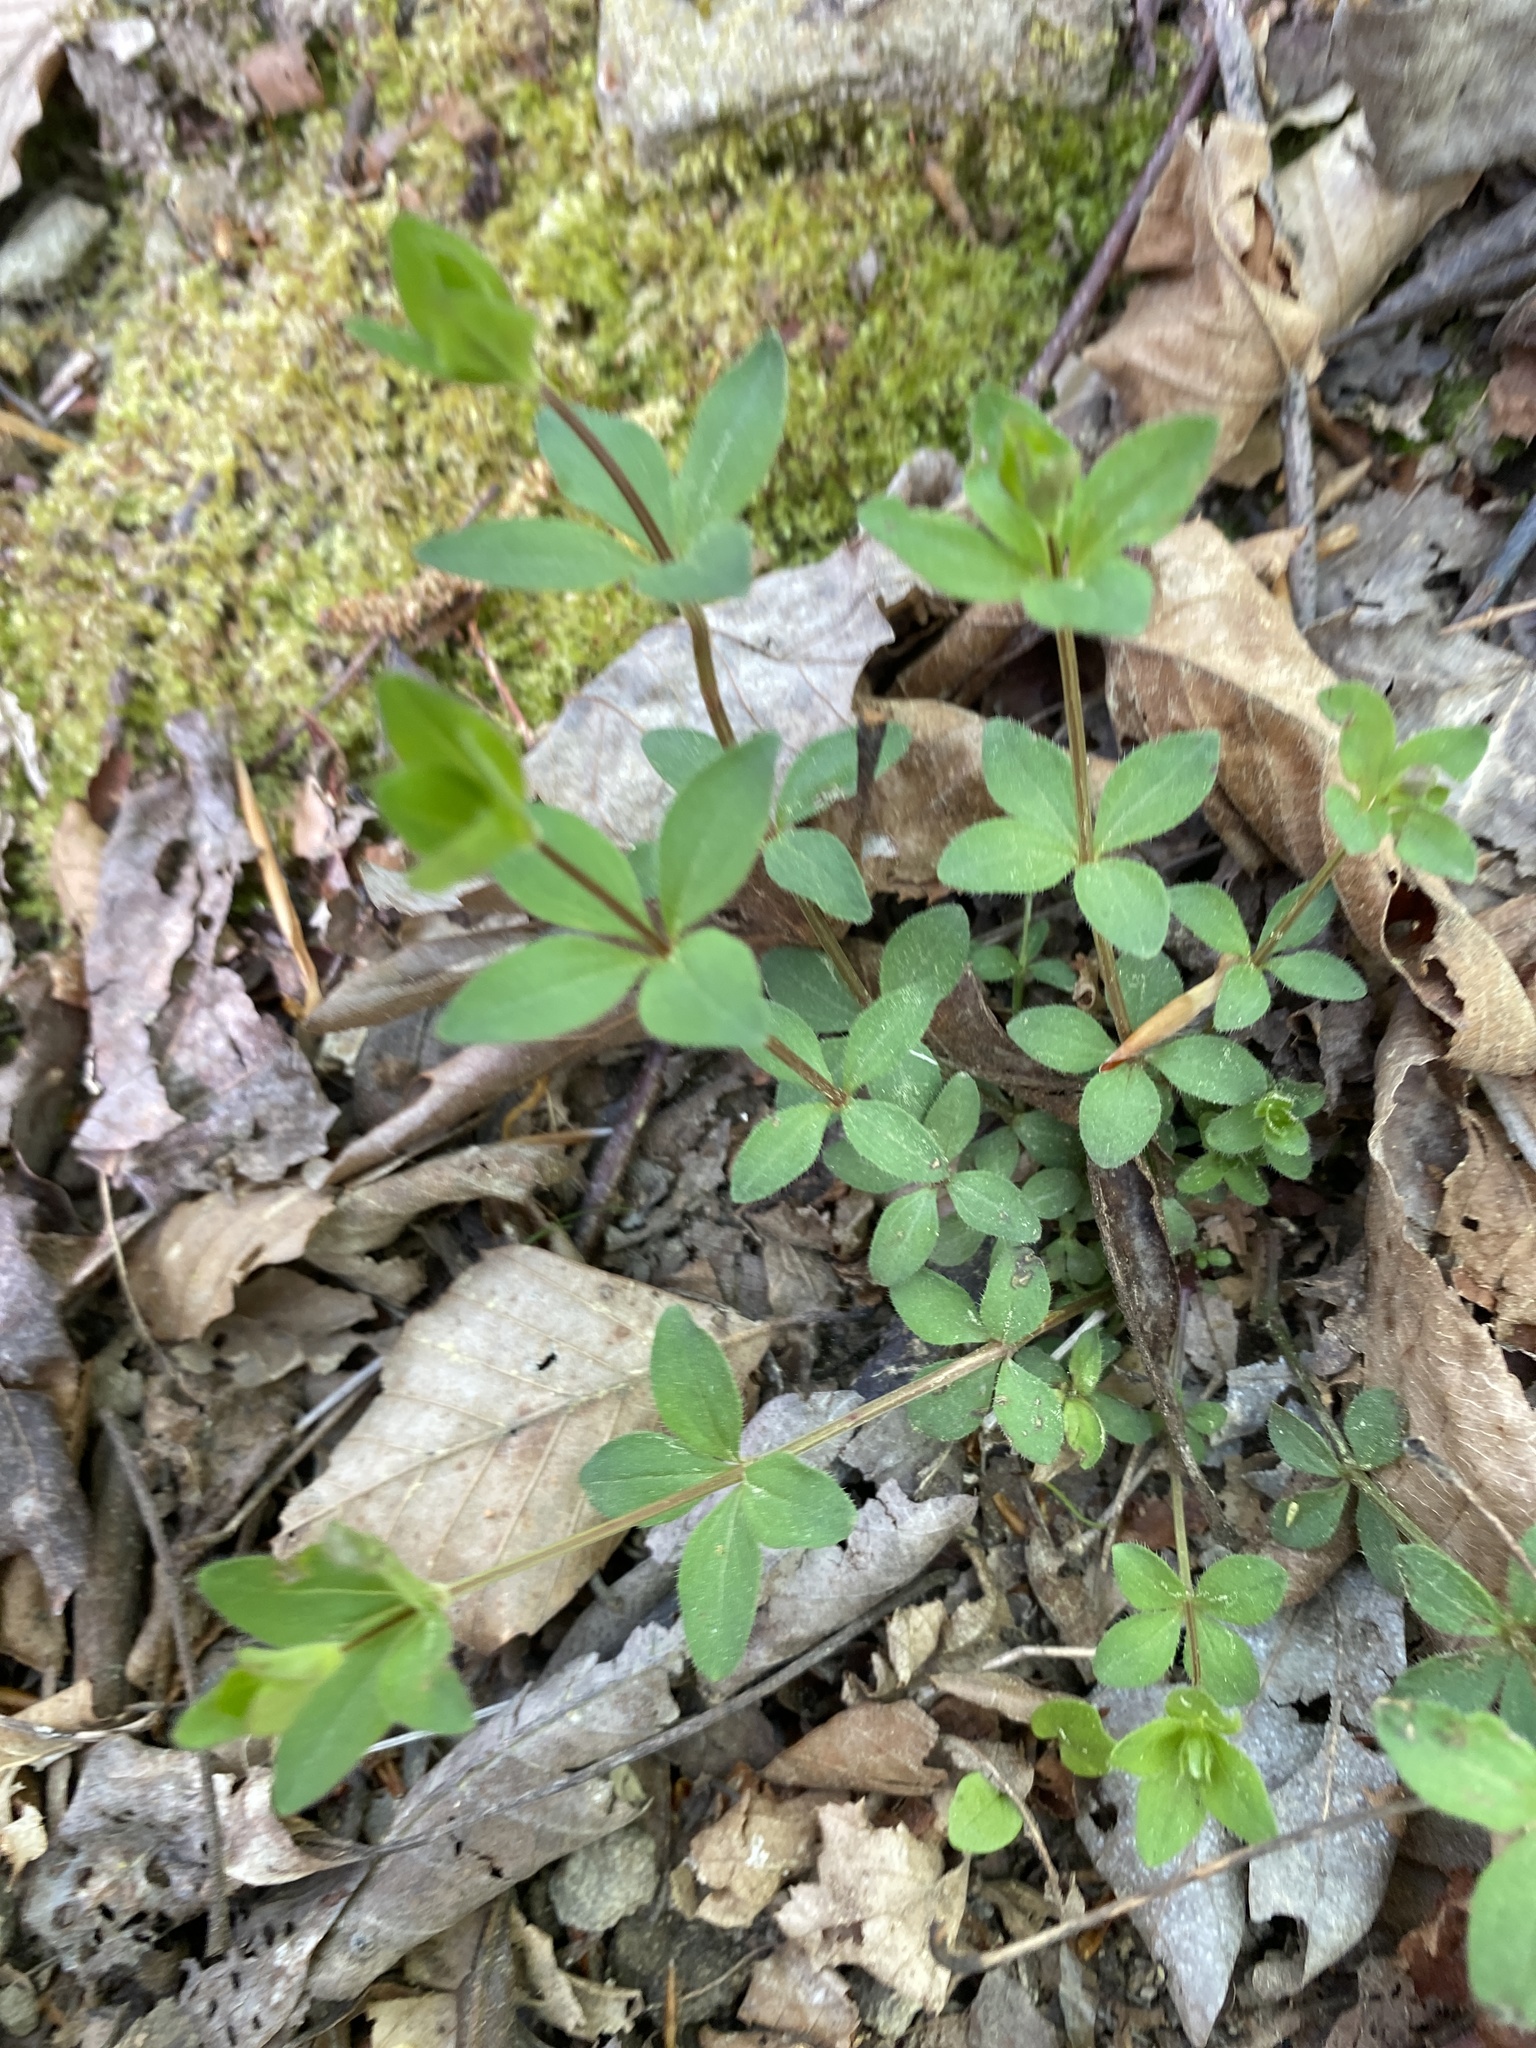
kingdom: Plantae
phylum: Tracheophyta
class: Magnoliopsida
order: Gentianales
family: Rubiaceae
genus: Galium
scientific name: Galium circaezans
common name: Forest bedstraw
